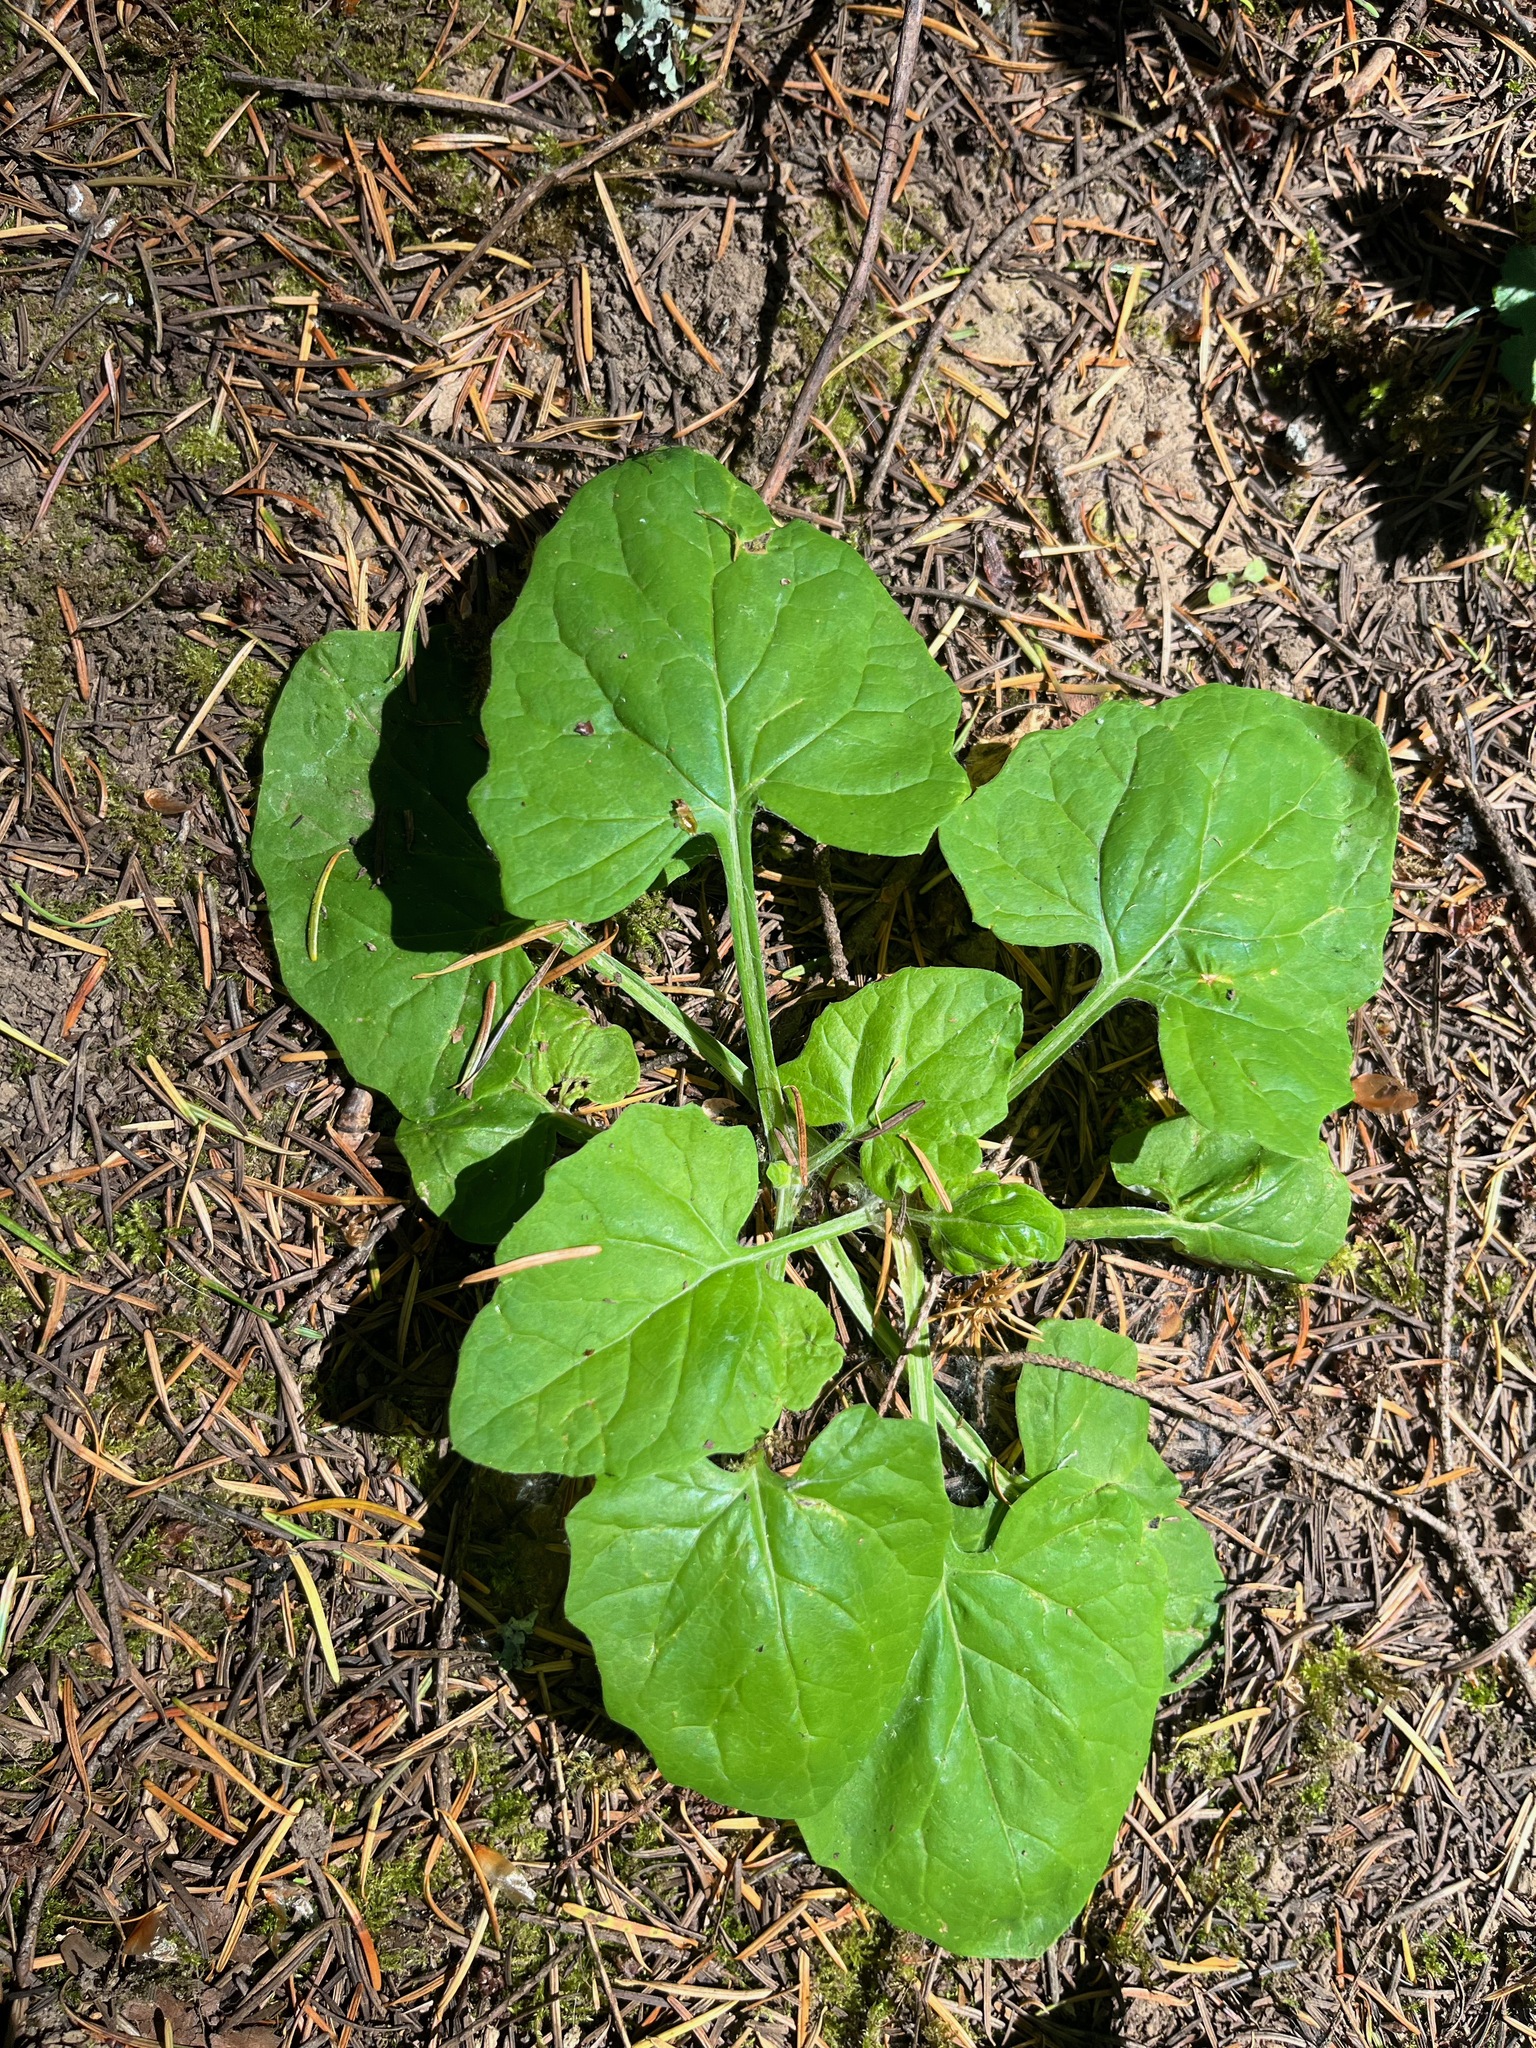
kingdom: Plantae
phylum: Tracheophyta
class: Magnoliopsida
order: Asterales
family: Asteraceae
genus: Adenocaulon
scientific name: Adenocaulon bicolor
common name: Trailplant
